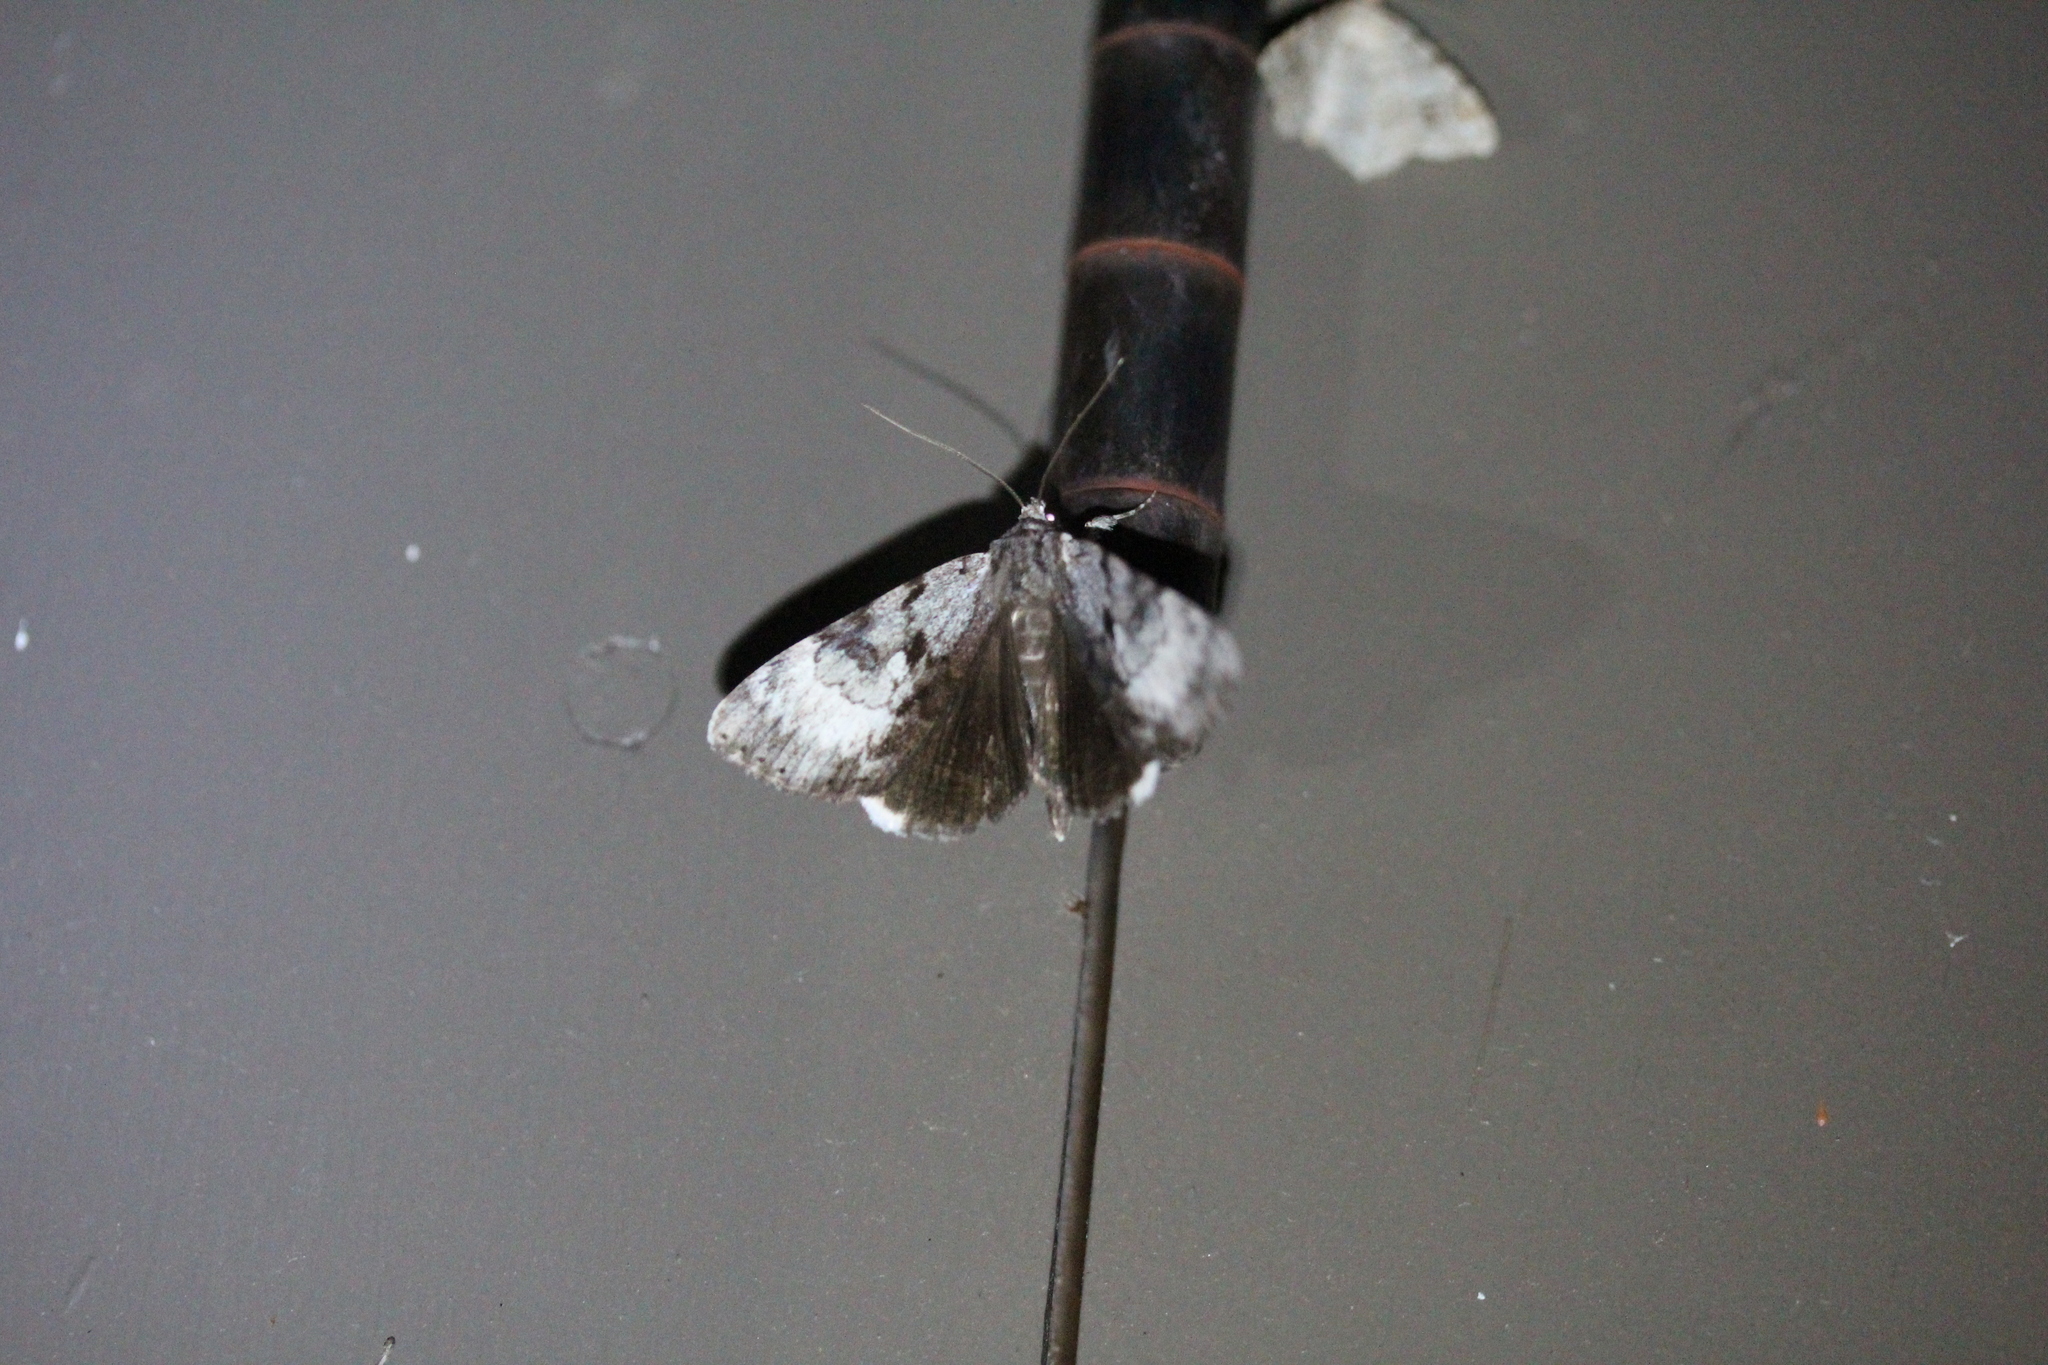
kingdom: Animalia
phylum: Arthropoda
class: Insecta
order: Lepidoptera
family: Erebidae
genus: Catocala
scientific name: Catocala andromedae
